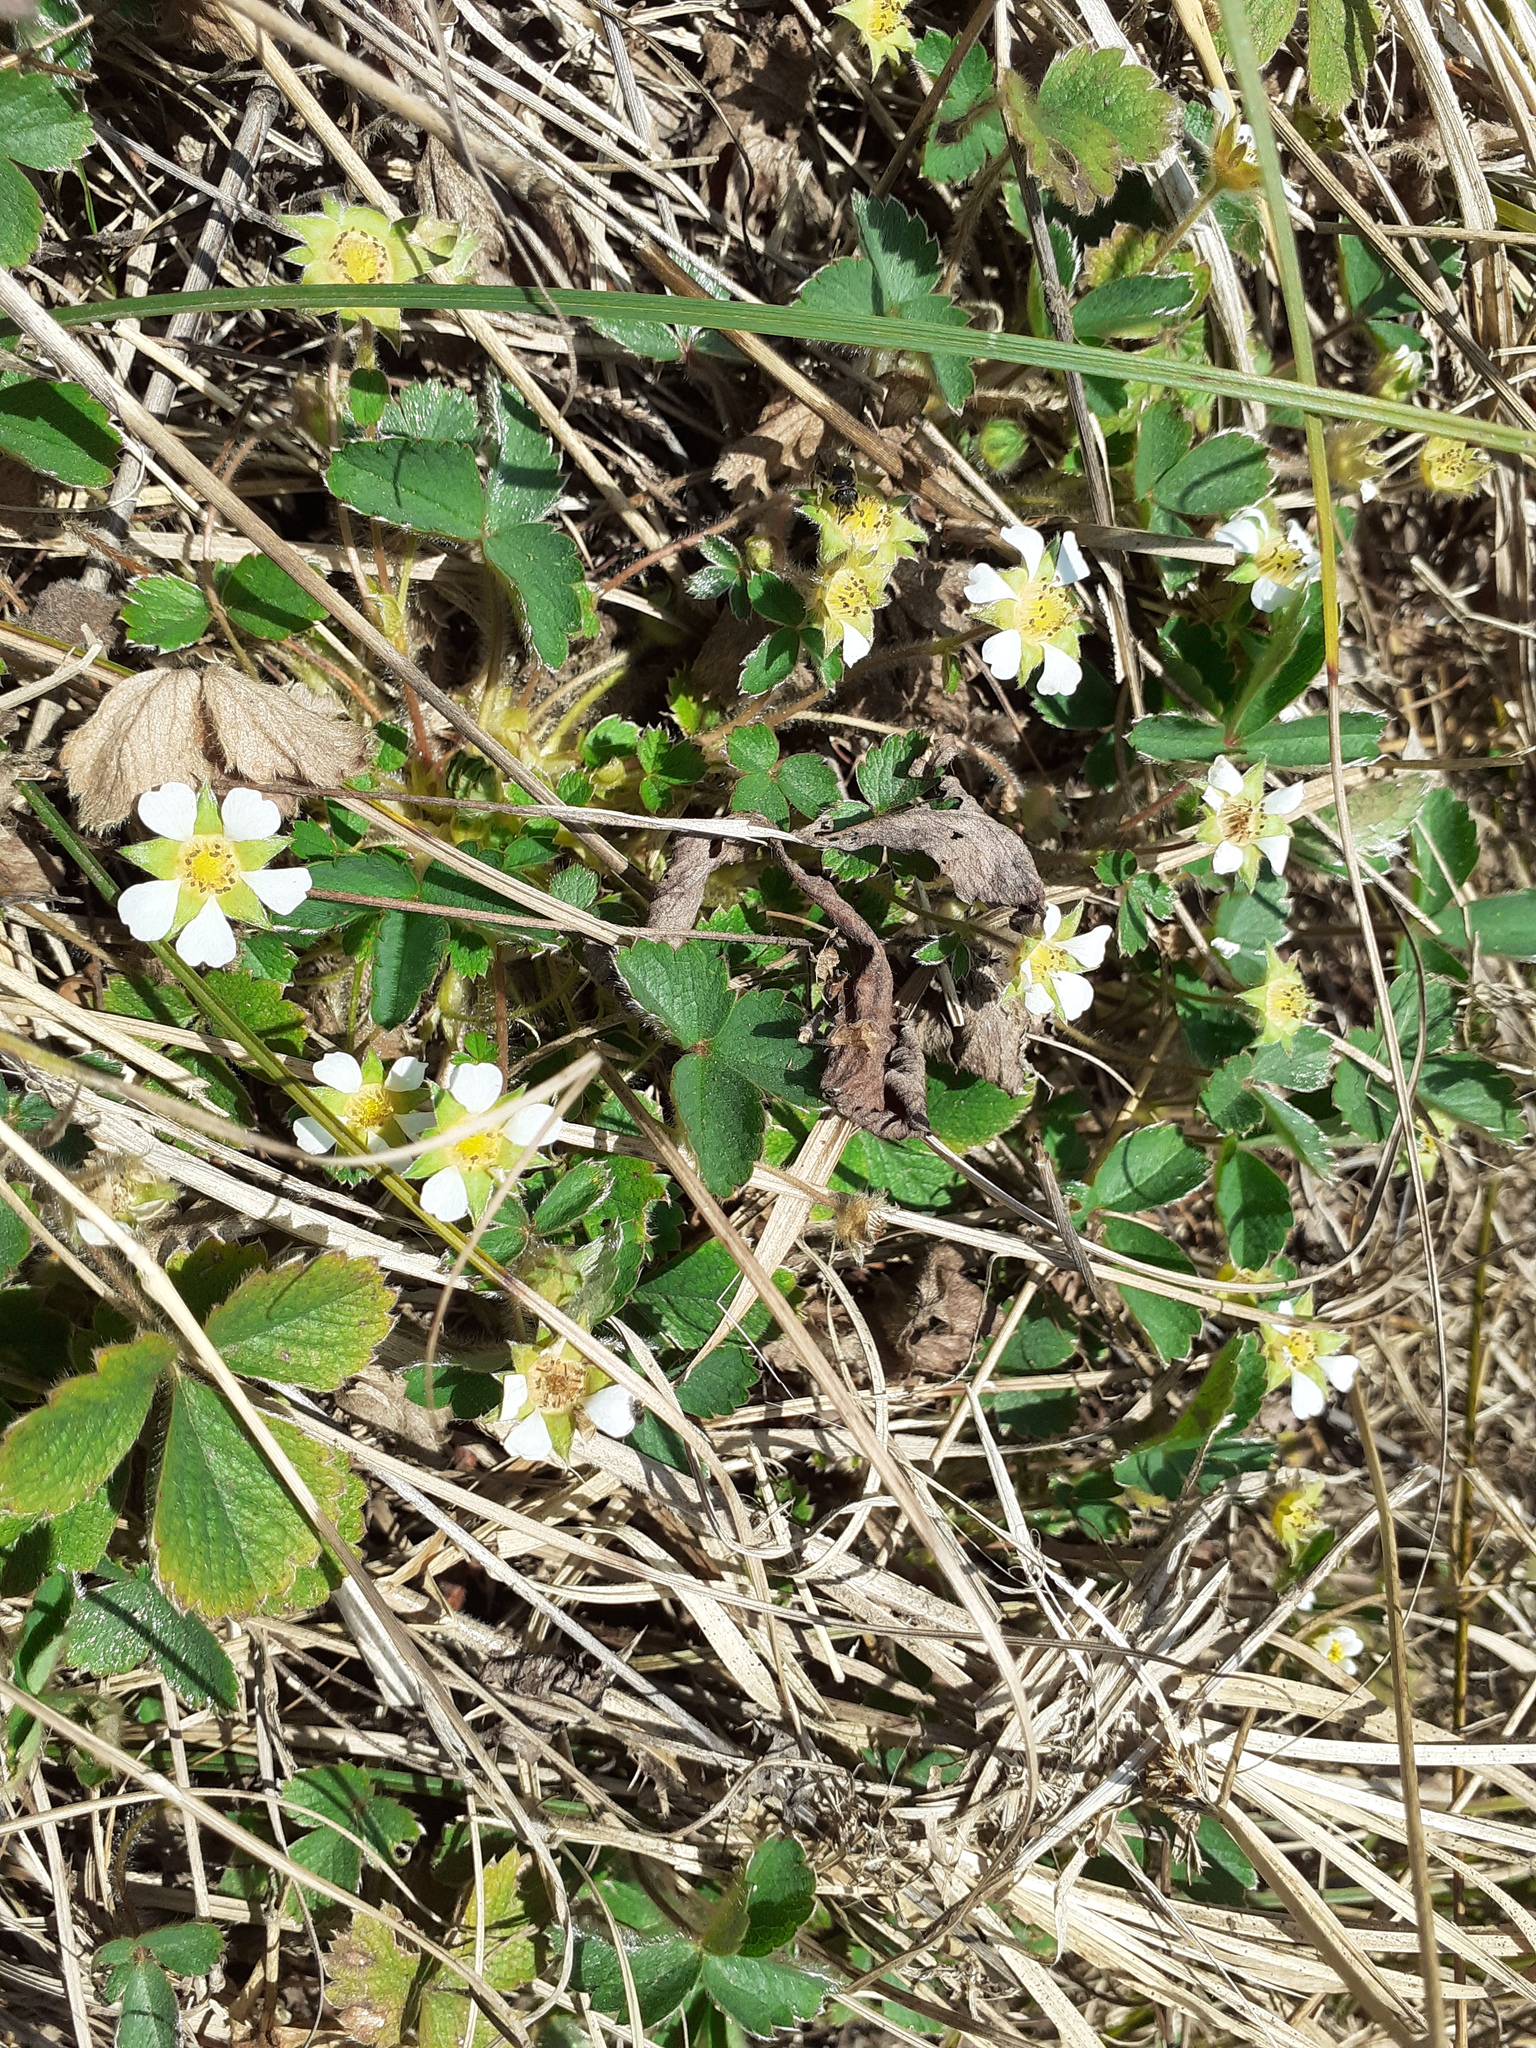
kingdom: Plantae
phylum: Tracheophyta
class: Magnoliopsida
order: Rosales
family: Rosaceae
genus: Potentilla
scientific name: Potentilla sterilis
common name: Barren strawberry
